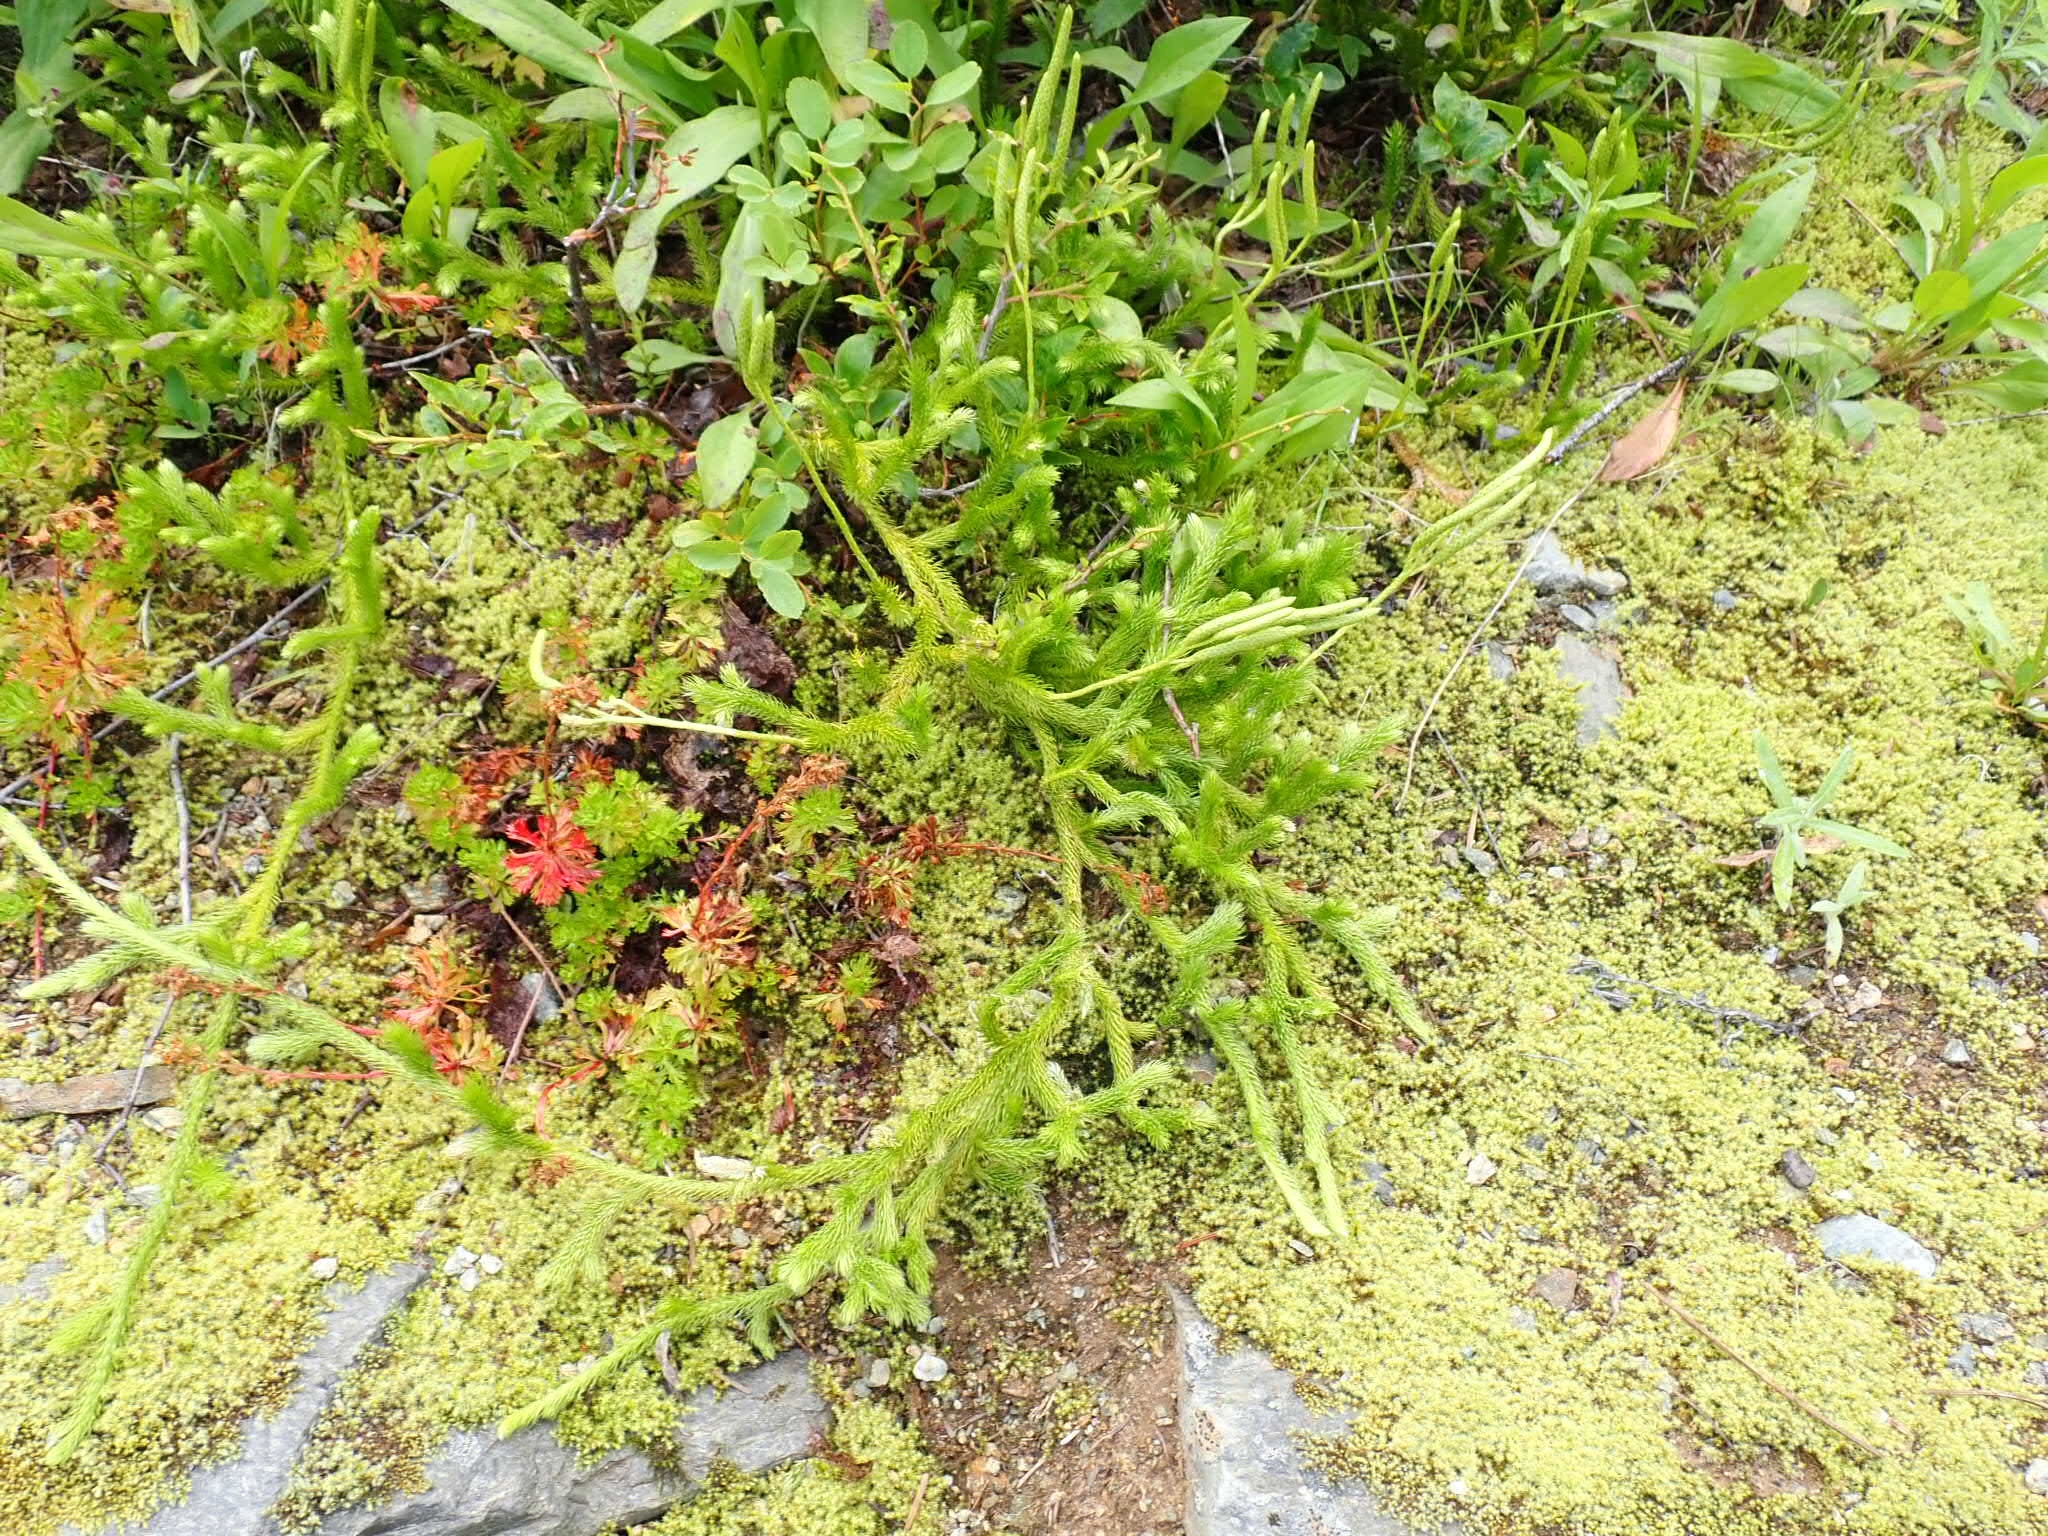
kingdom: Plantae
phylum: Tracheophyta
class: Lycopodiopsida
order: Lycopodiales
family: Lycopodiaceae
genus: Lycopodium
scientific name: Lycopodium clavatum
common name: Stag's-horn clubmoss
